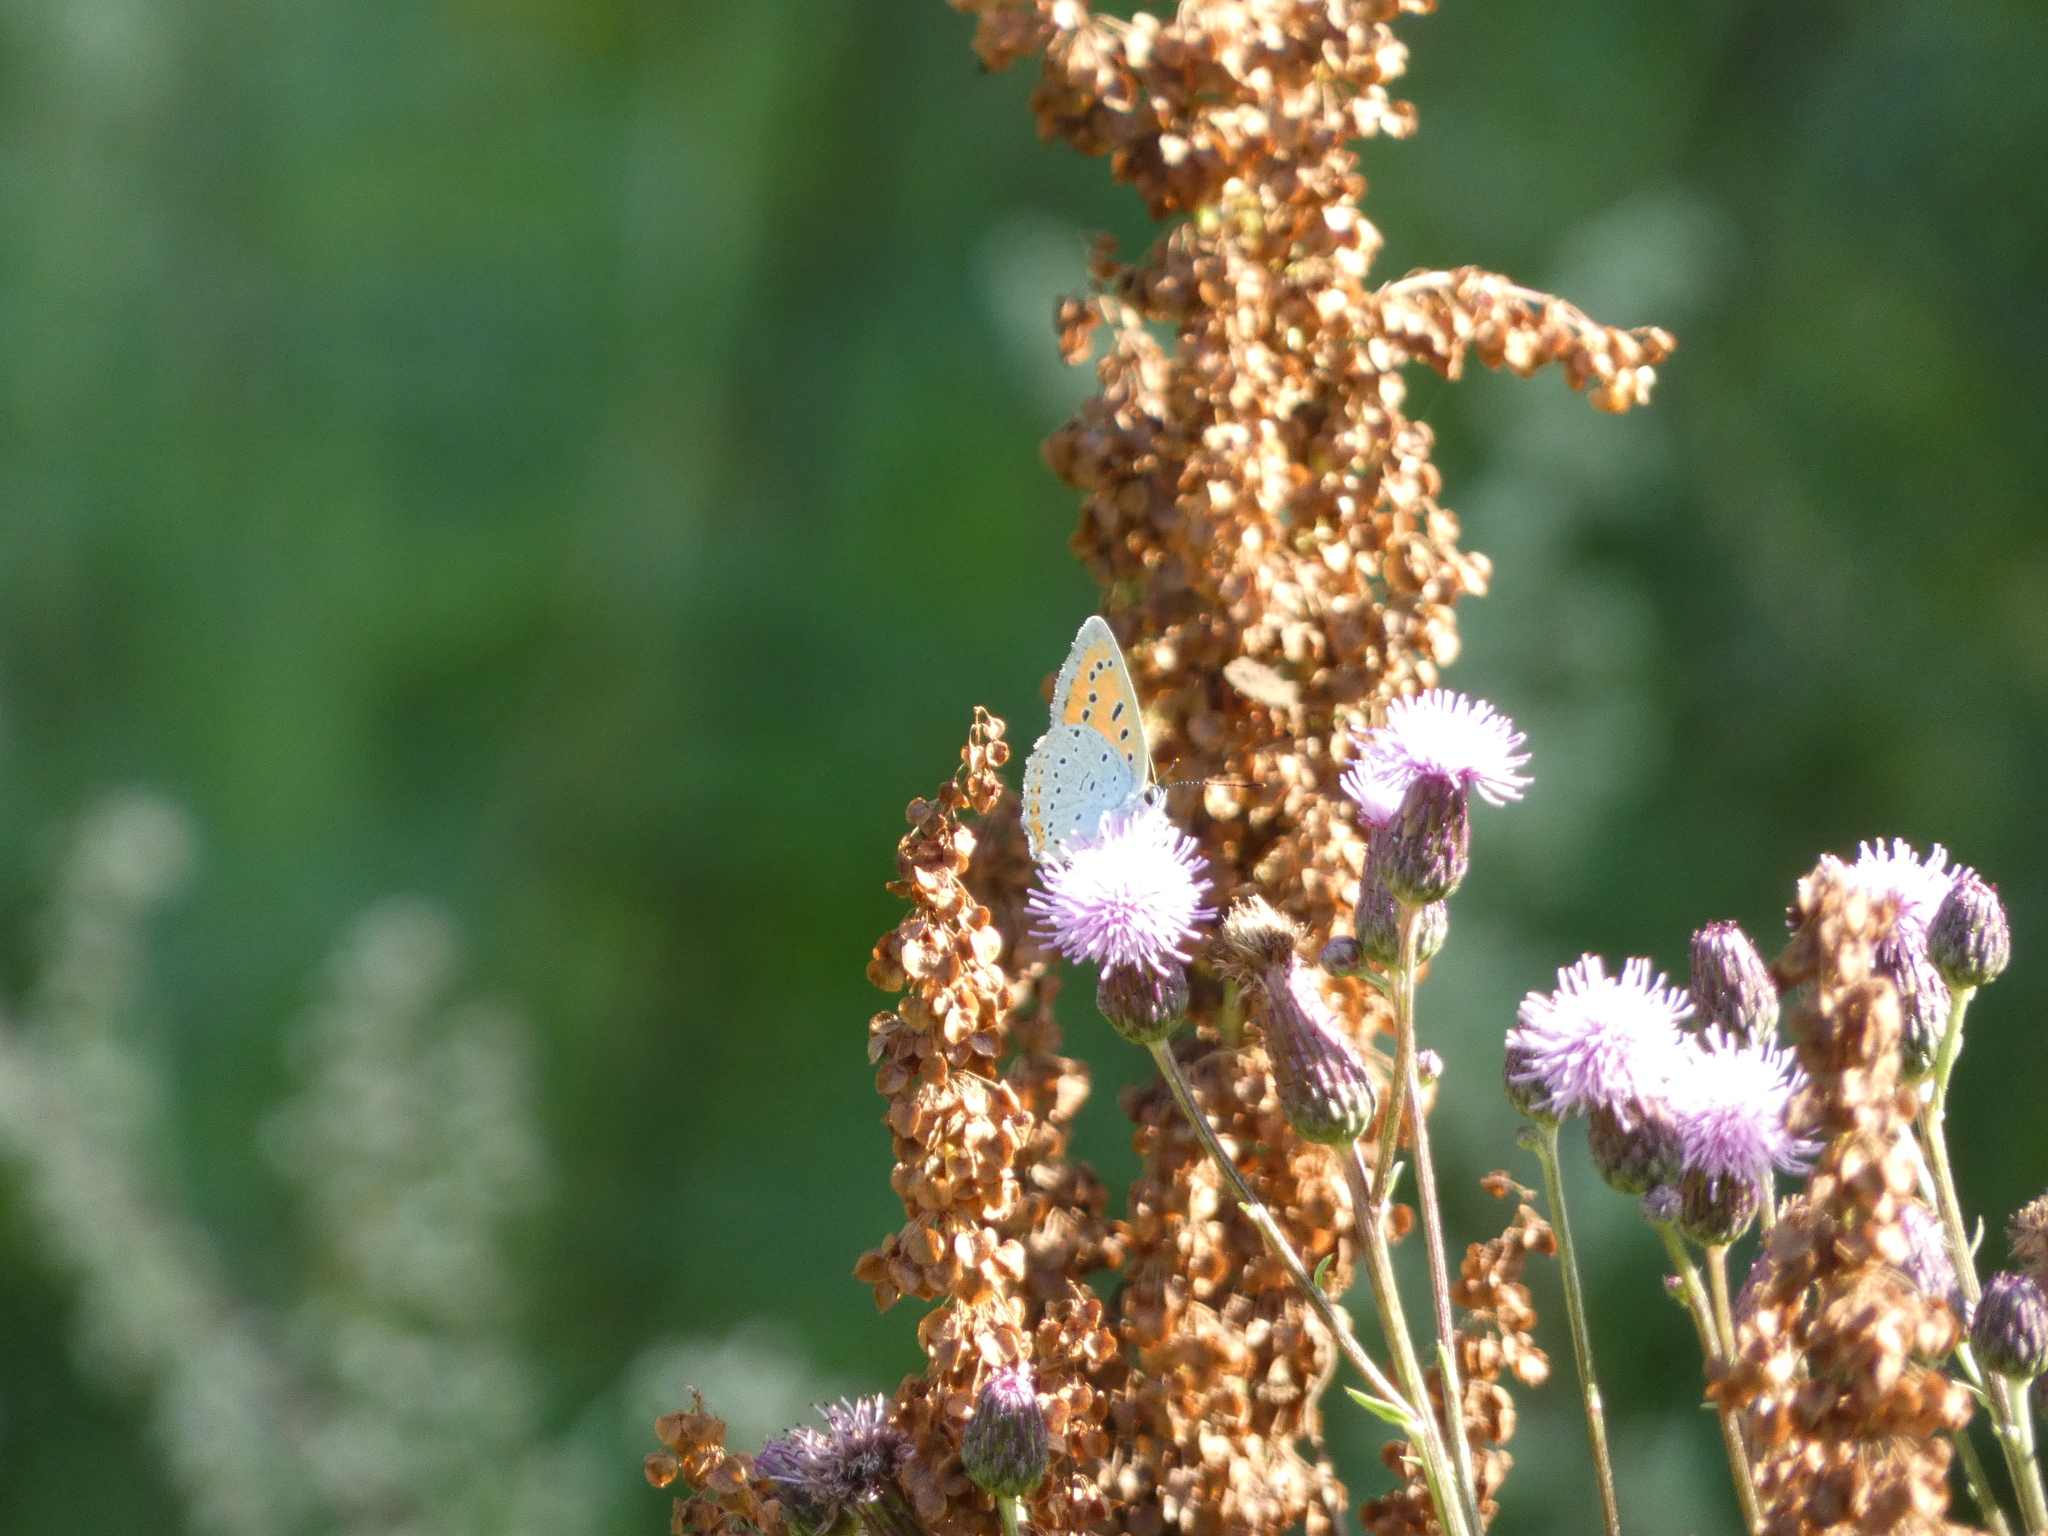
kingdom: Animalia
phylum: Arthropoda
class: Insecta
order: Lepidoptera
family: Lycaenidae
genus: Lycaena
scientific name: Lycaena dispar
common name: Large copper
